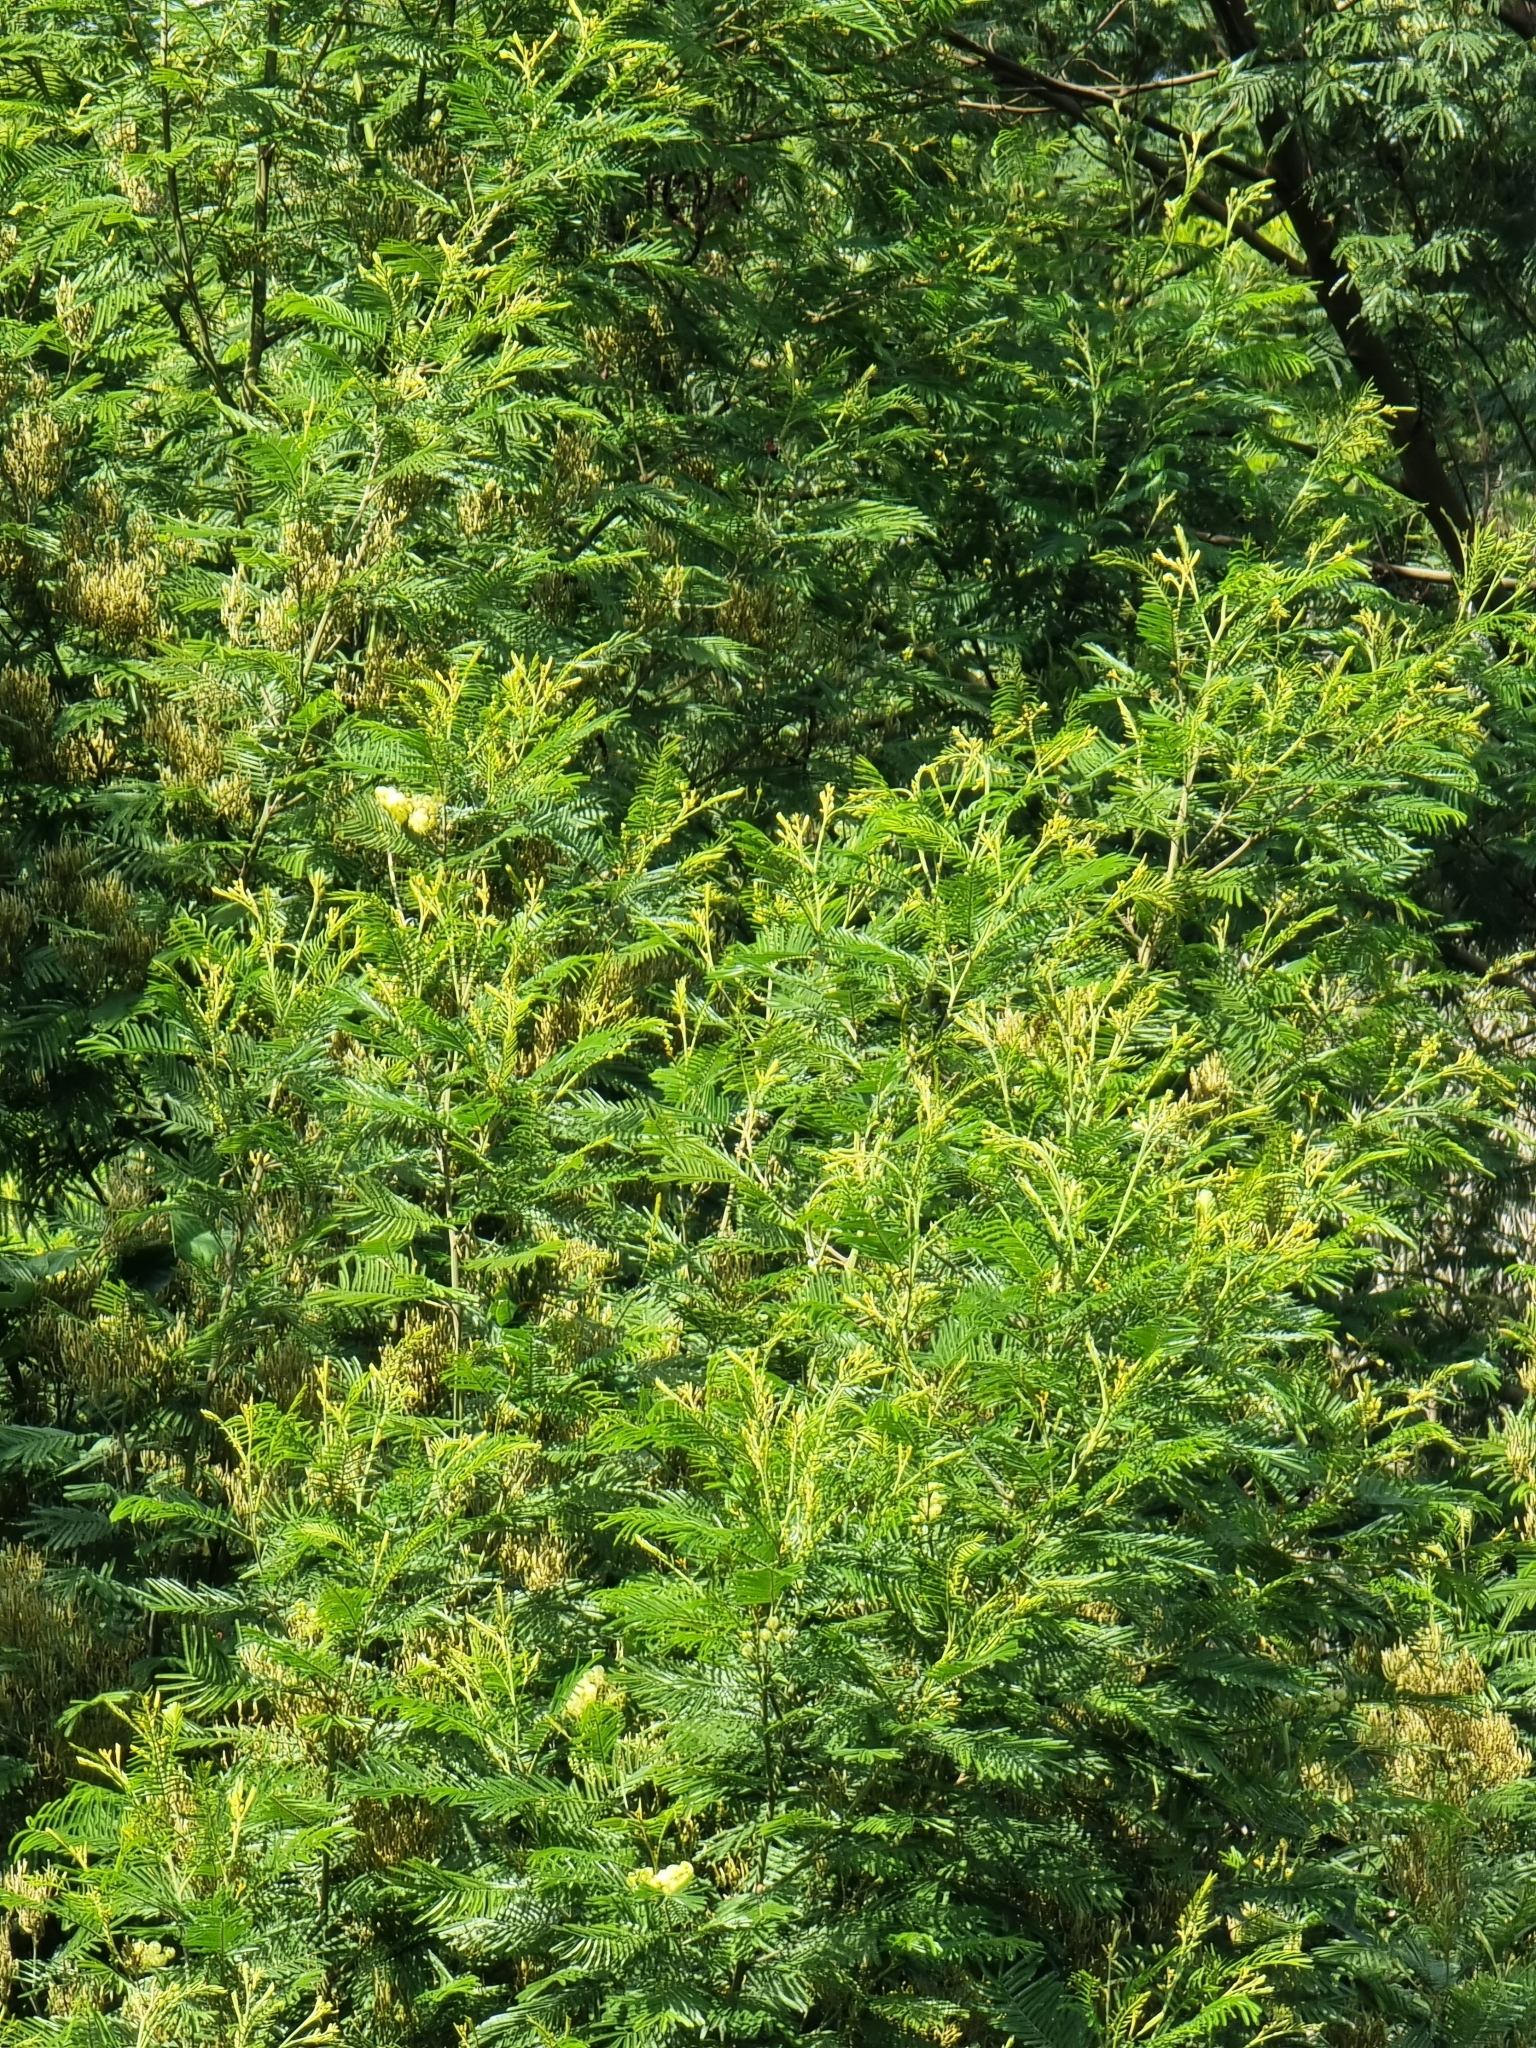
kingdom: Plantae
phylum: Tracheophyta
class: Magnoliopsida
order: Fabales
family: Fabaceae
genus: Acacia
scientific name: Acacia mearnsii
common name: Black wattle
